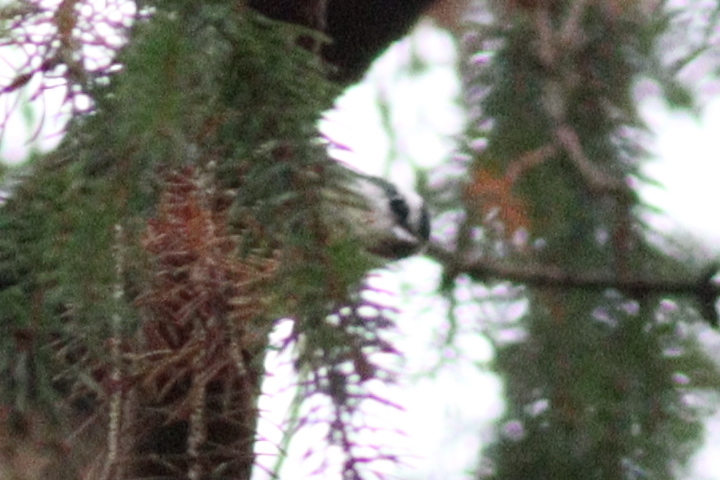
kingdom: Animalia
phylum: Chordata
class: Aves
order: Passeriformes
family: Sittidae
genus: Sitta
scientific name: Sitta canadensis
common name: Red-breasted nuthatch
